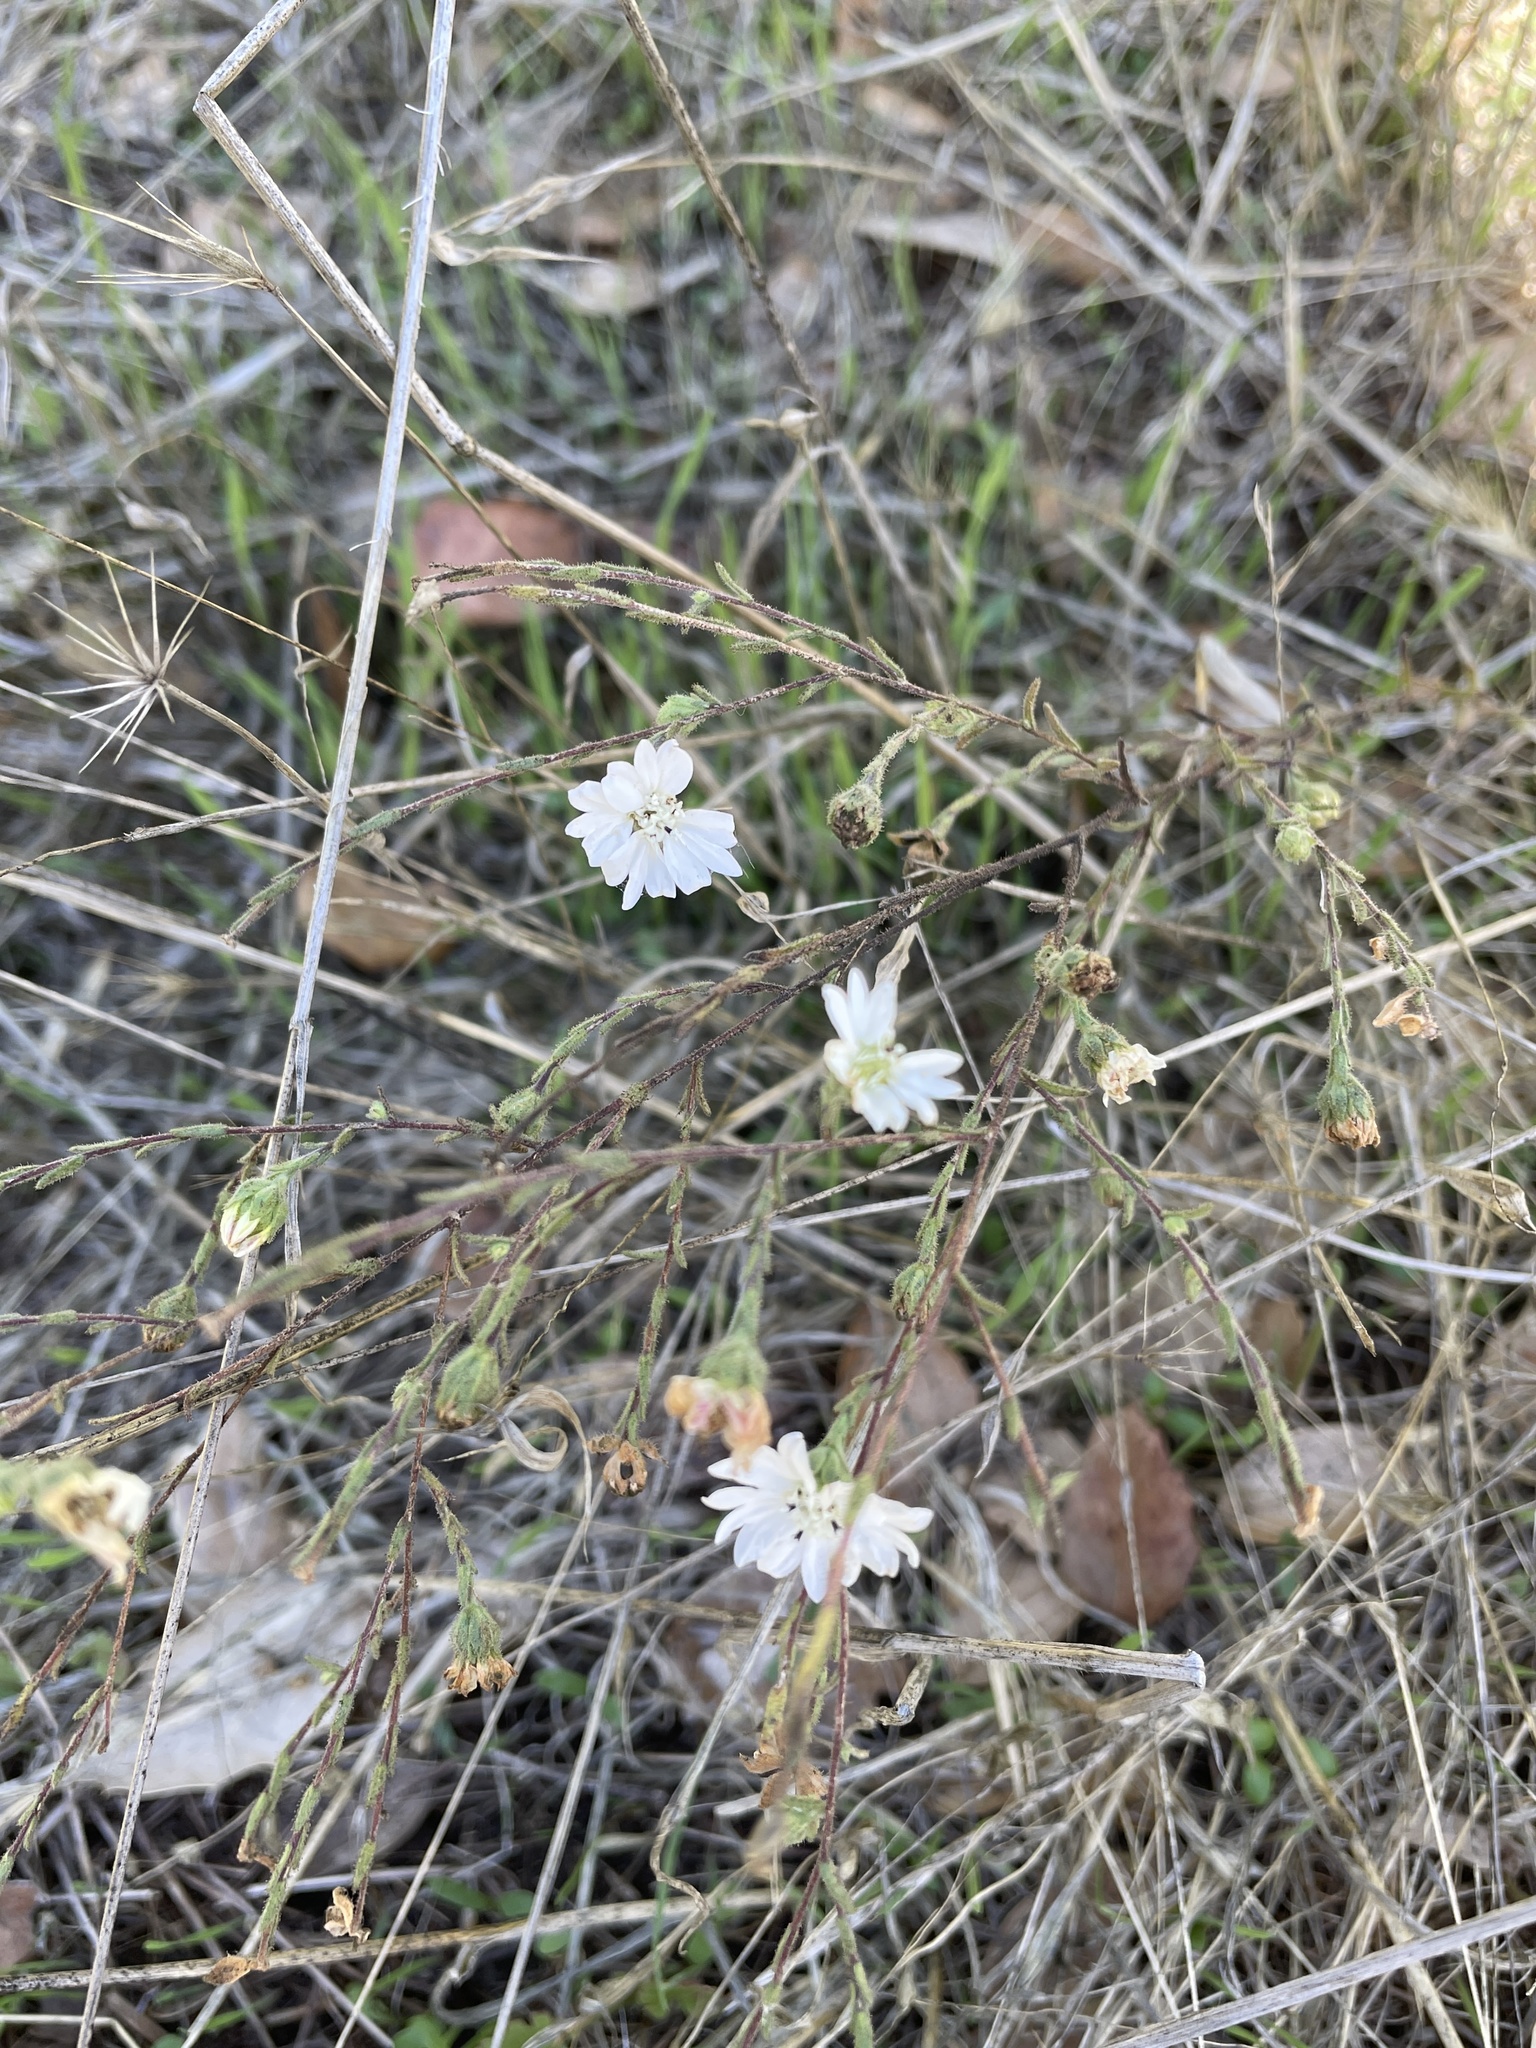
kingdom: Plantae
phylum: Tracheophyta
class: Magnoliopsida
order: Asterales
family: Asteraceae
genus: Hemizonia
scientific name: Hemizonia congesta
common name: Hayfield tarweed
